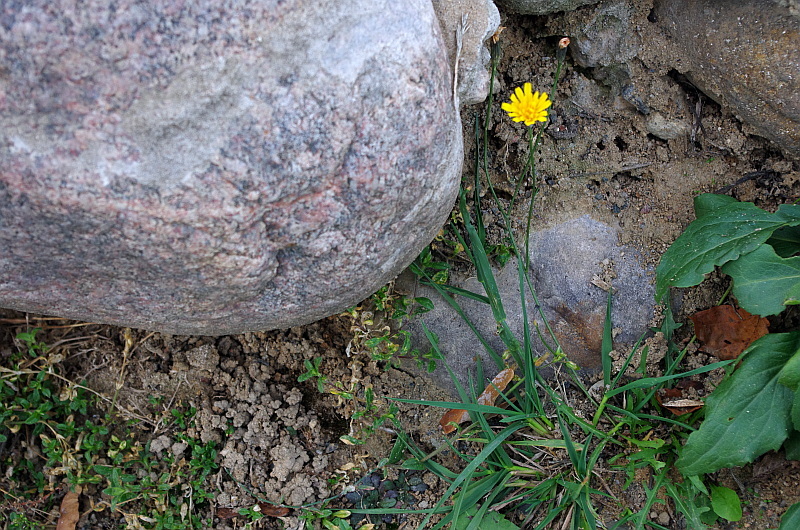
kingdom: Plantae
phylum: Tracheophyta
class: Magnoliopsida
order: Asterales
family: Asteraceae
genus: Scorzoneroides
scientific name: Scorzoneroides autumnalis
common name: Autumn hawkbit
